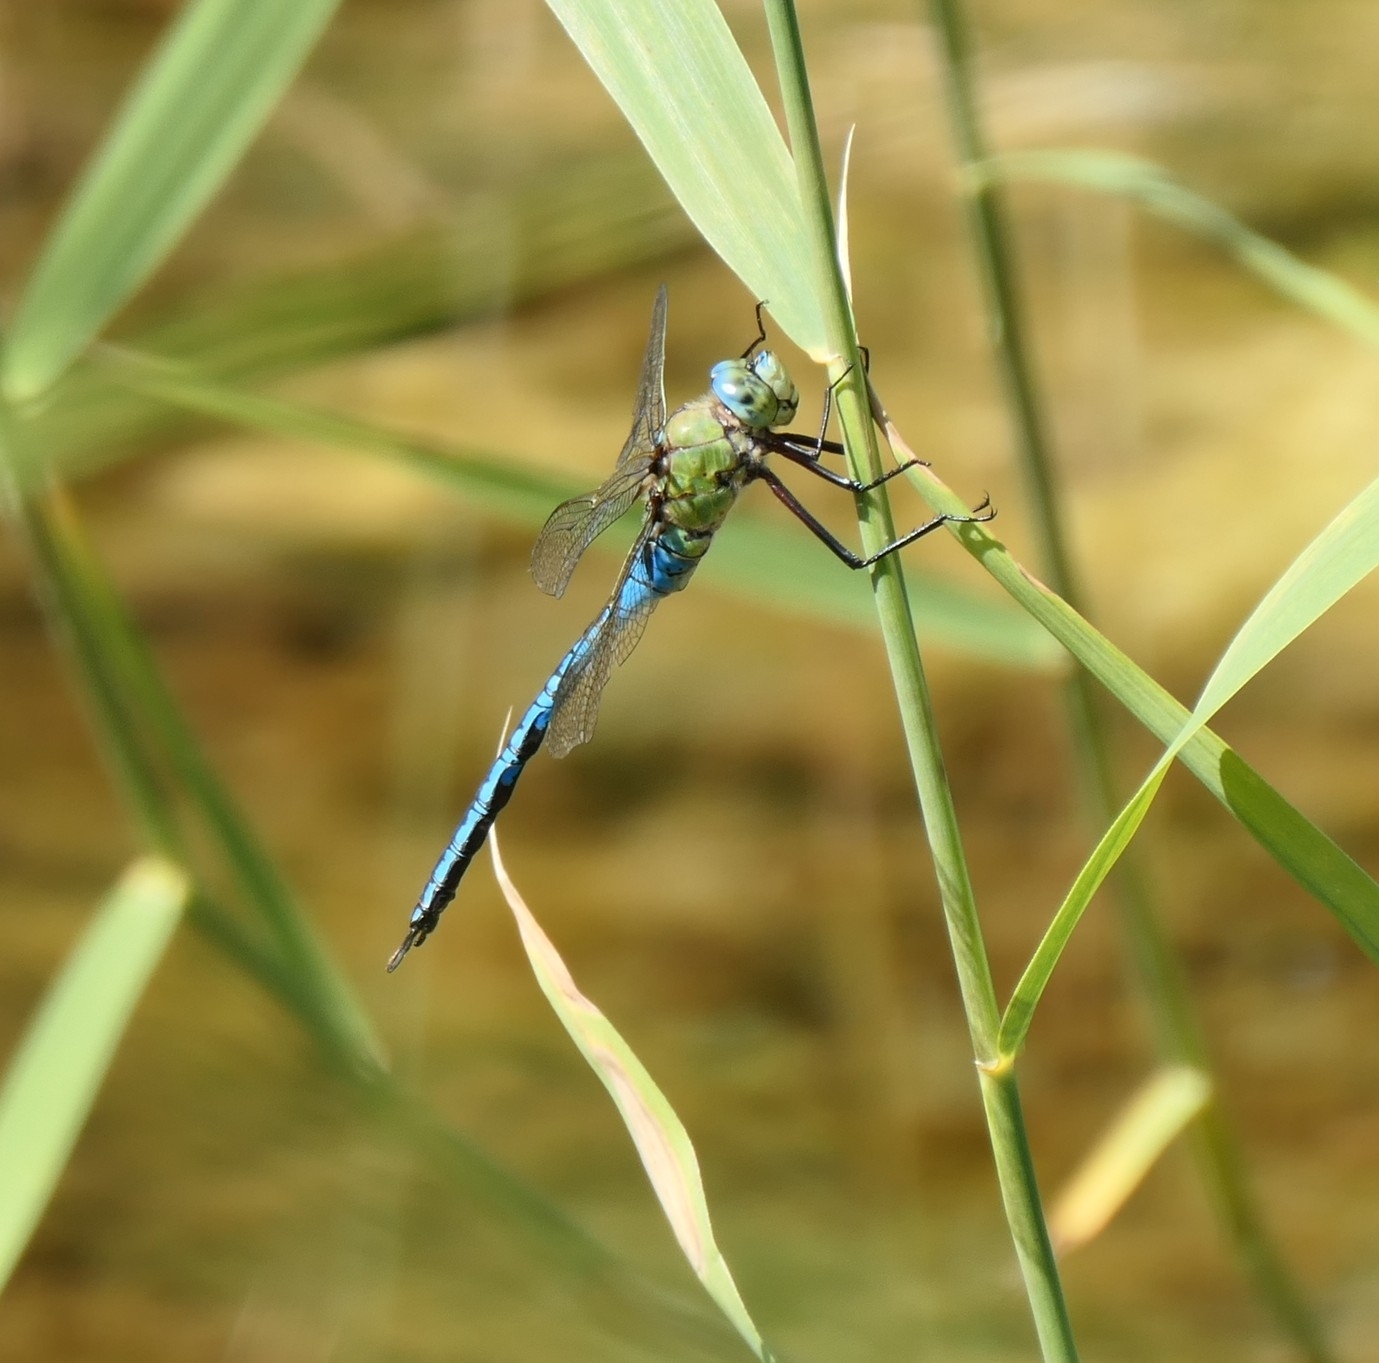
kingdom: Animalia
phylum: Arthropoda
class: Insecta
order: Odonata
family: Aeshnidae
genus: Anax
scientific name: Anax imperator
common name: Emperor dragonfly
